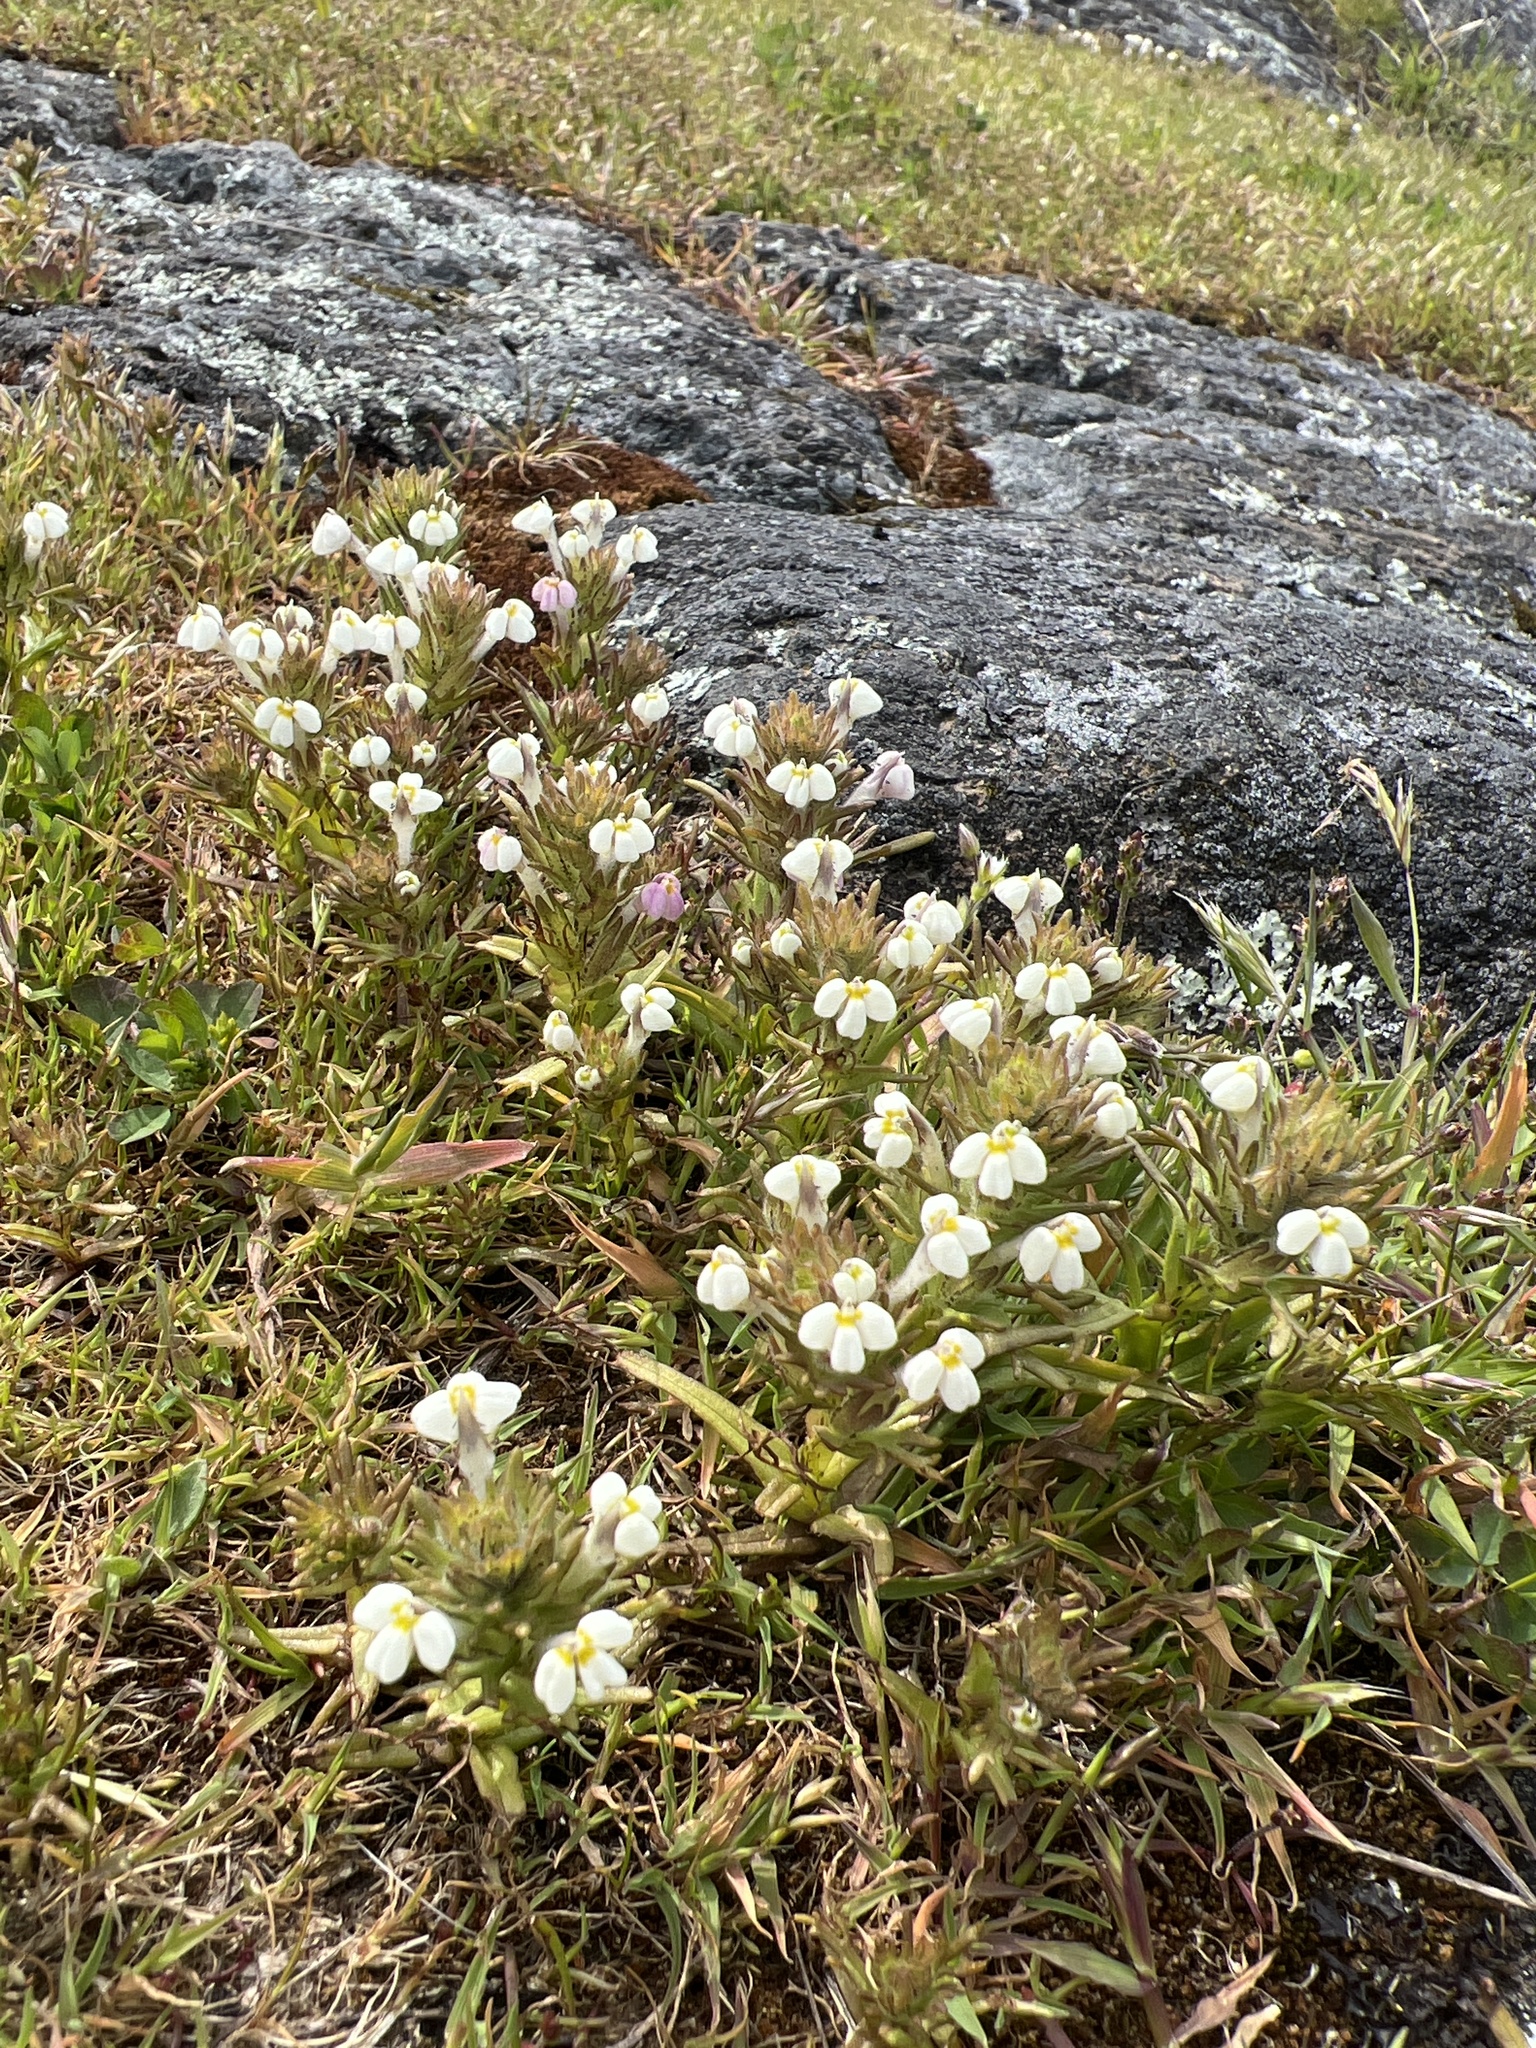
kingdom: Plantae
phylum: Tracheophyta
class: Magnoliopsida
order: Lamiales
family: Orobanchaceae
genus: Triphysaria
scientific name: Triphysaria versicolor
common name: Bearded false owl-clover
